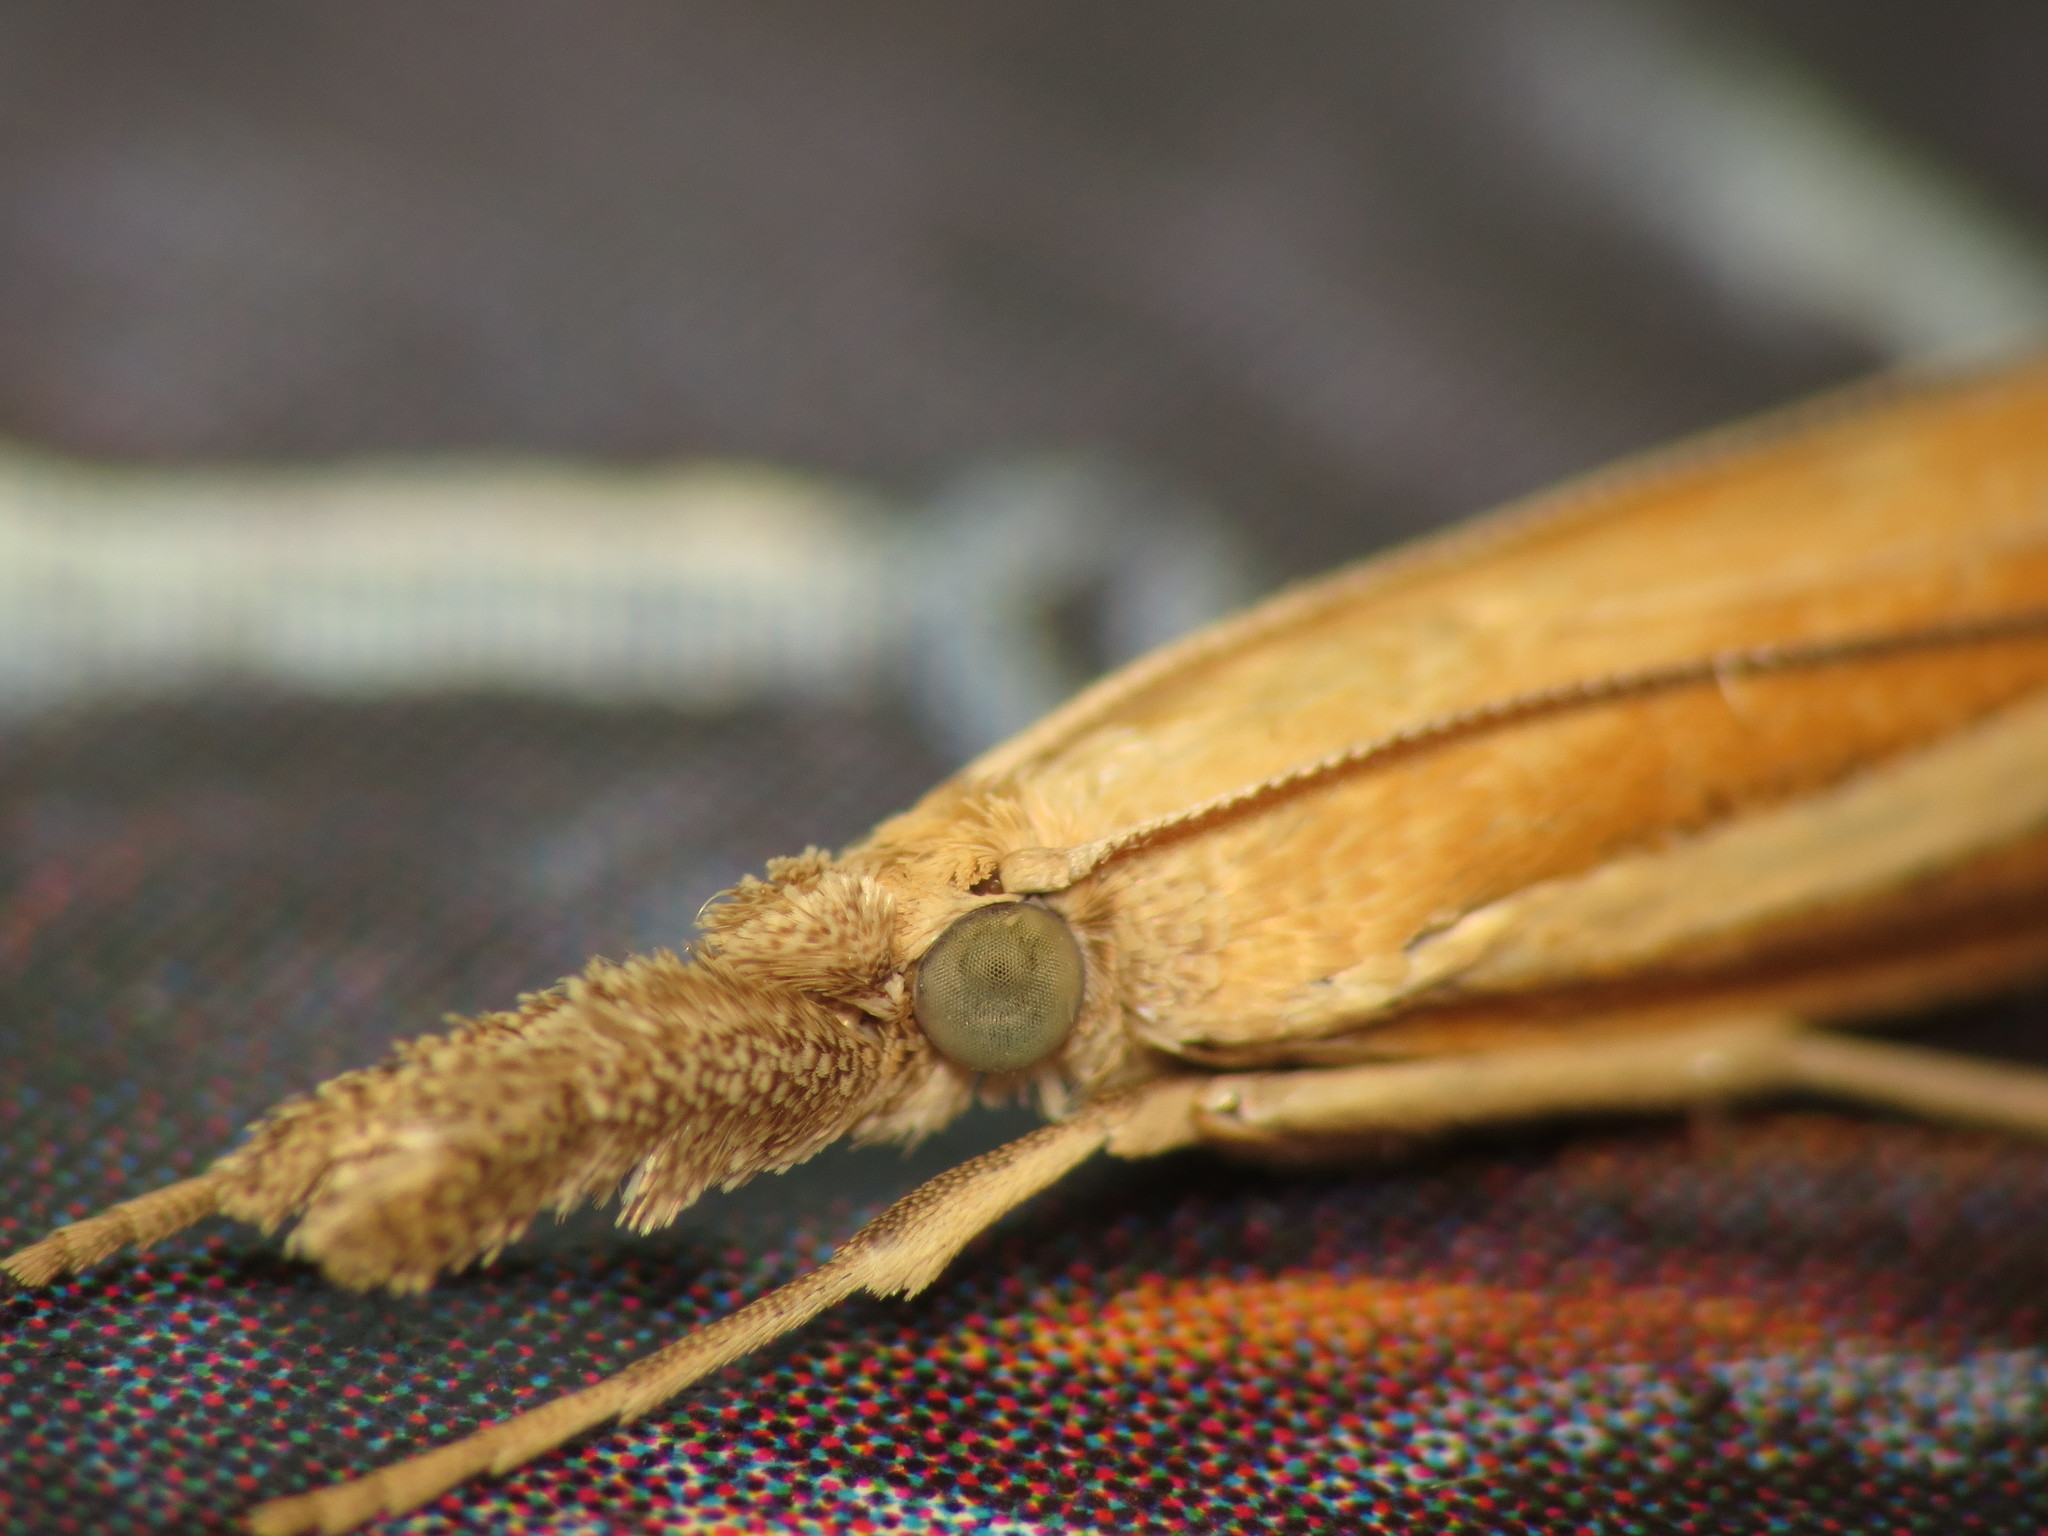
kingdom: Animalia
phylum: Arthropoda
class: Insecta
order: Lepidoptera
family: Crambidae
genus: Agriphila
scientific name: Agriphila selasella
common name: Pale-streak grass-veneer
